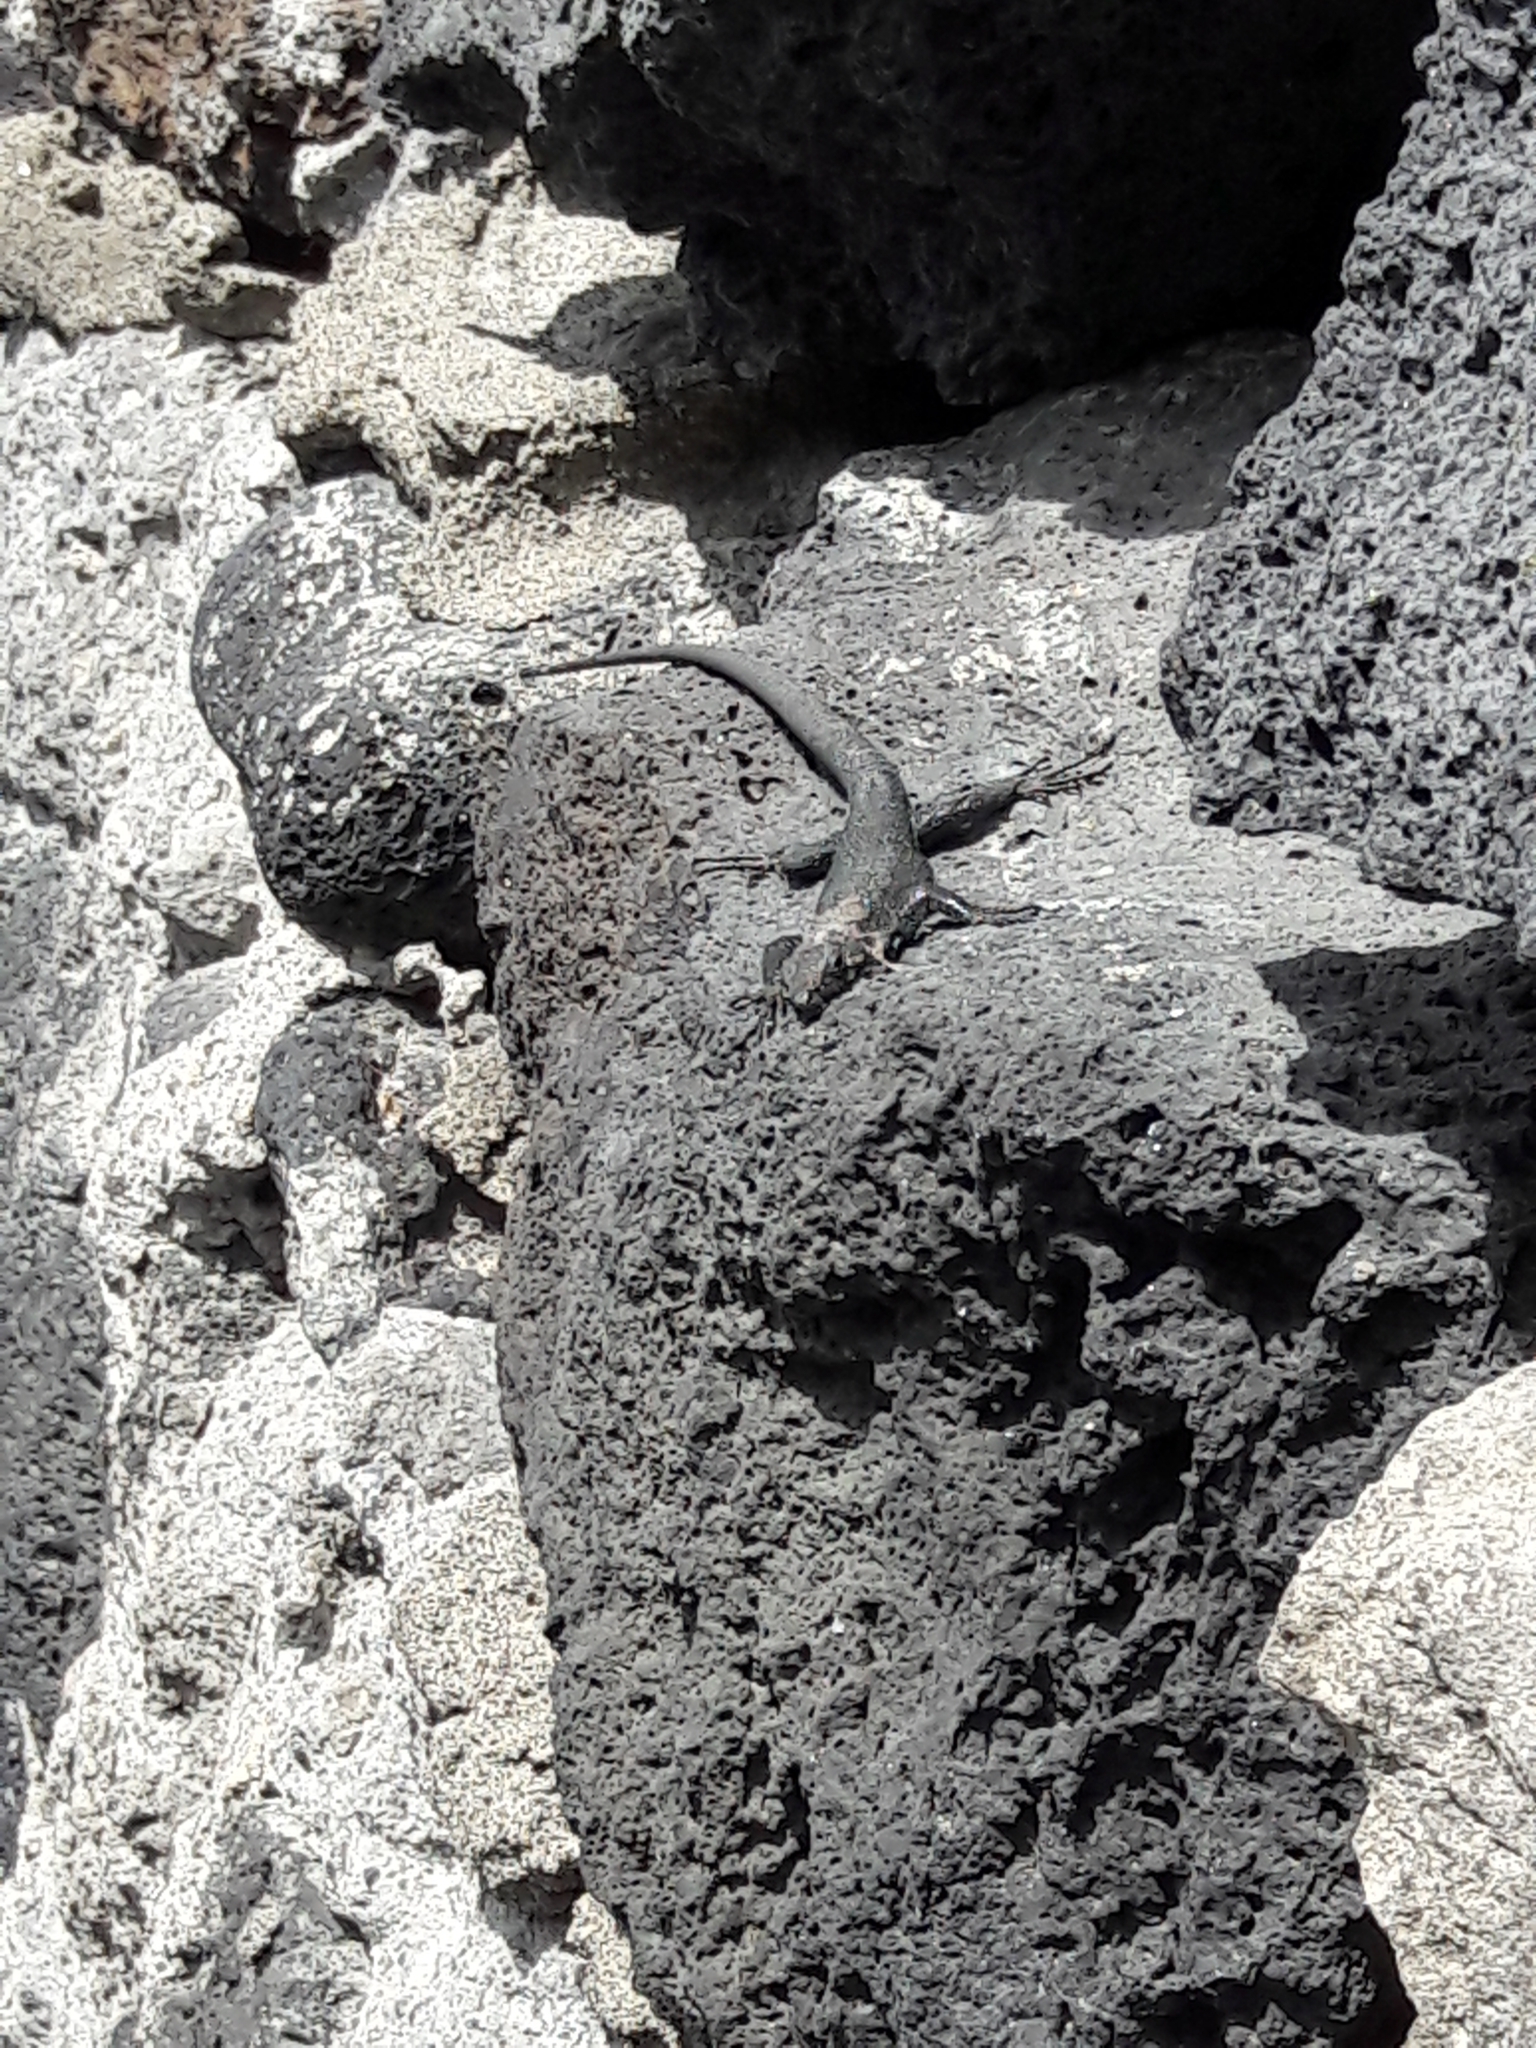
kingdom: Animalia
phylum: Chordata
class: Squamata
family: Lacertidae
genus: Teira
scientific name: Teira dugesii
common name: Madeira lizard
